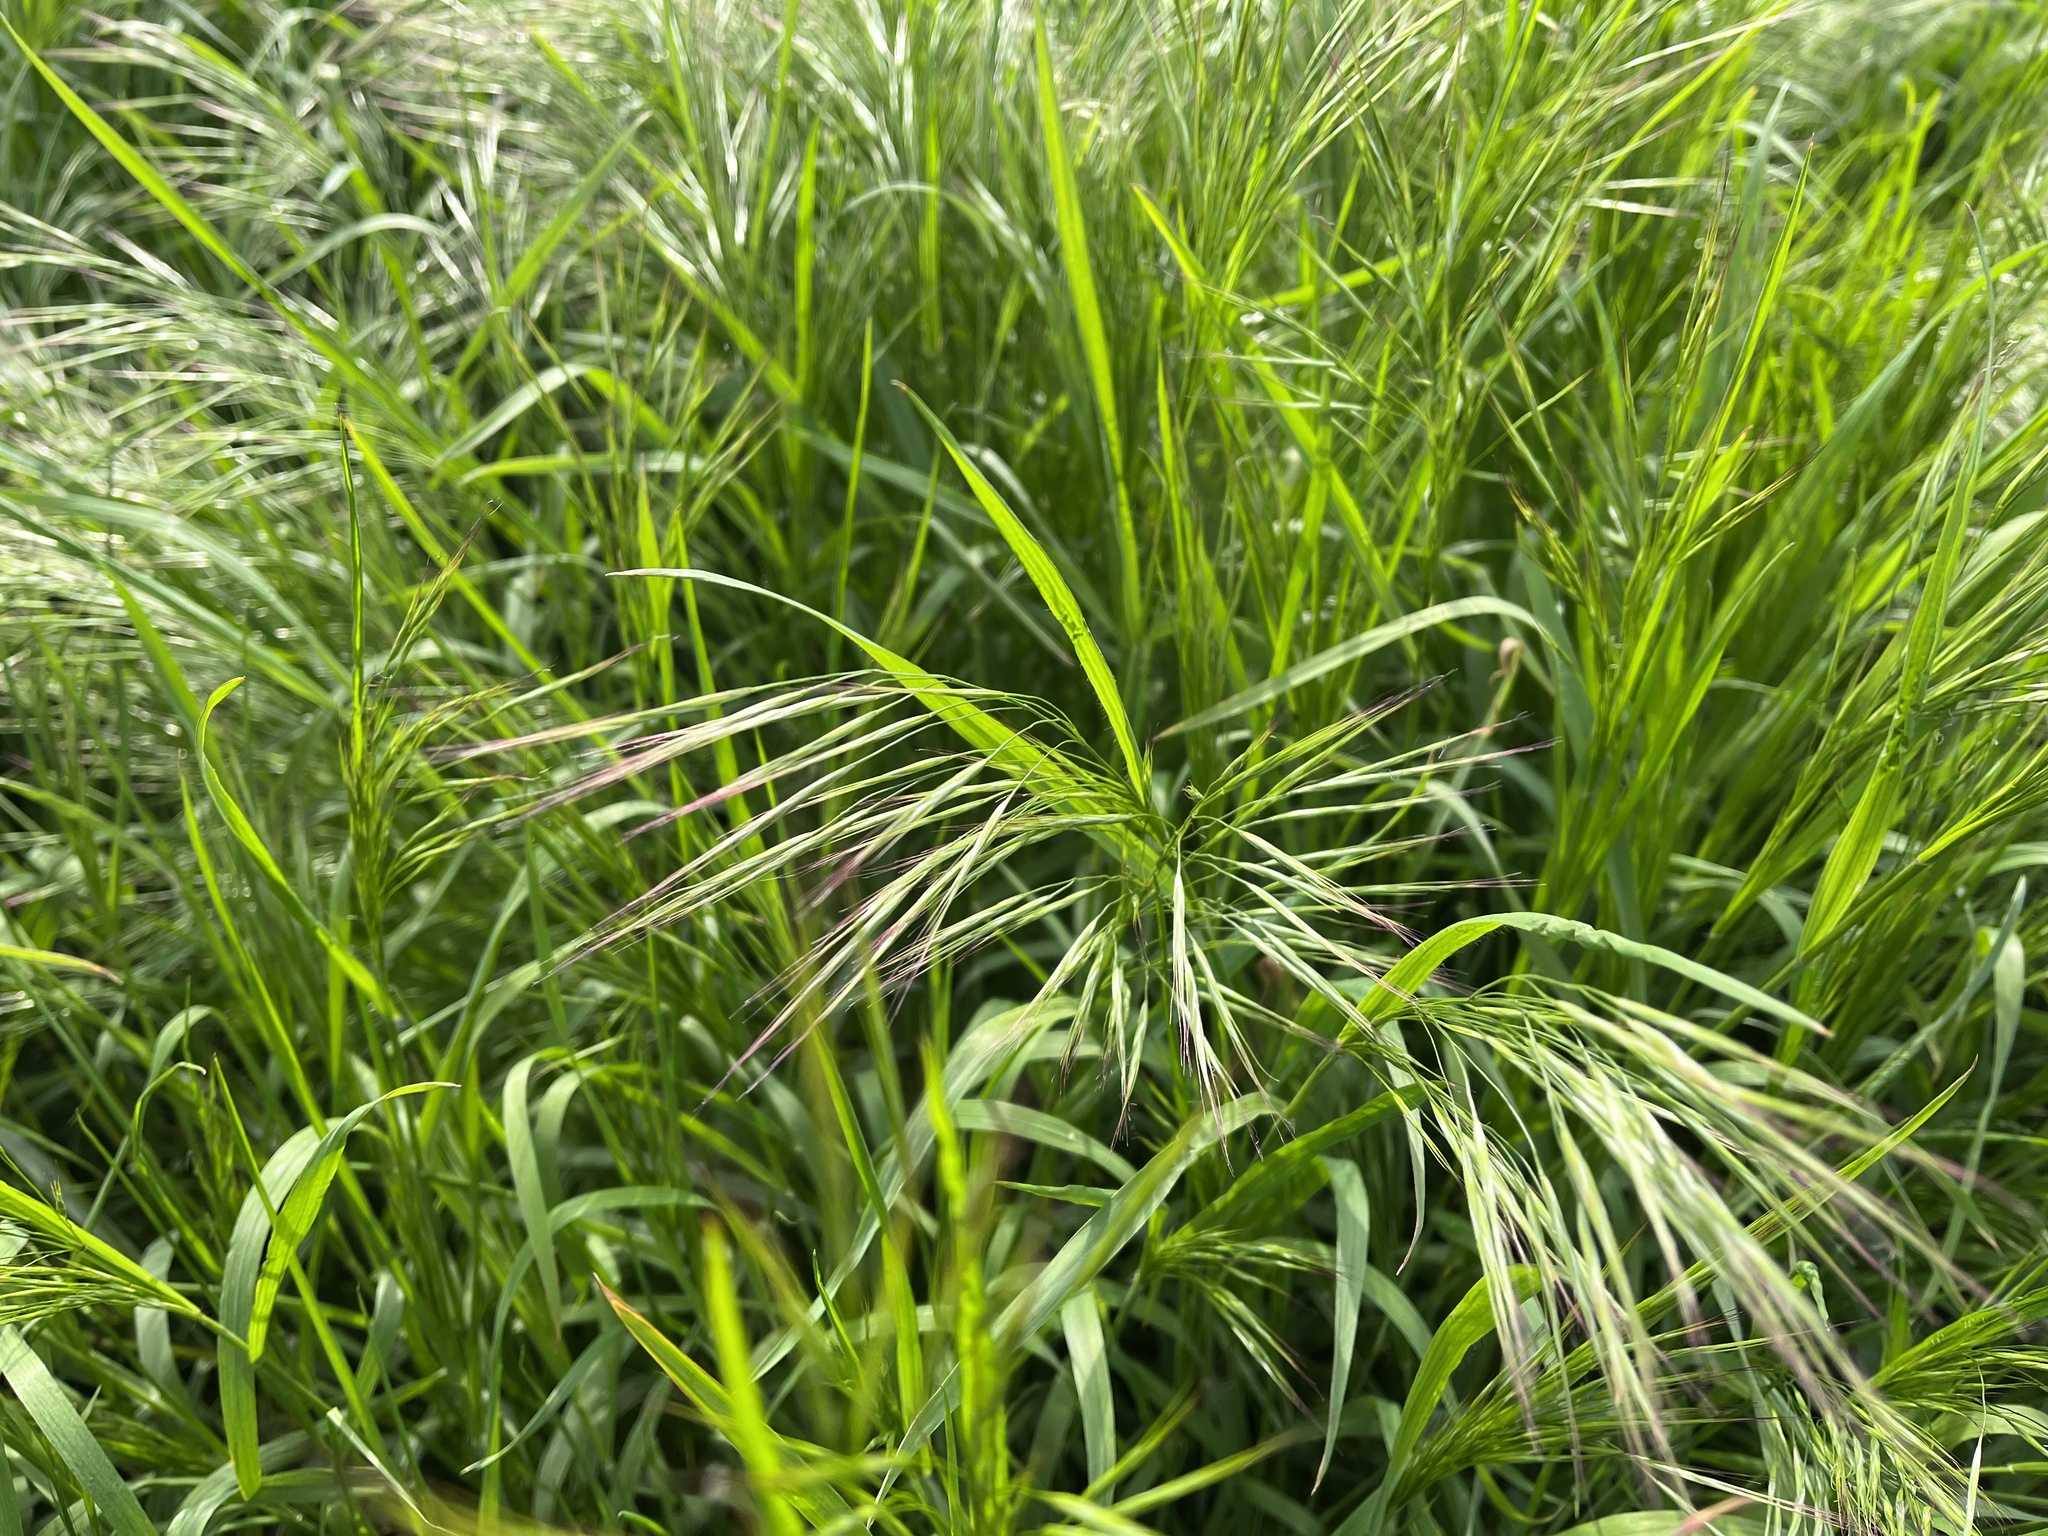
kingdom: Plantae
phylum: Tracheophyta
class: Liliopsida
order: Poales
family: Poaceae
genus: Bromus
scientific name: Bromus sterilis
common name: Poverty brome
